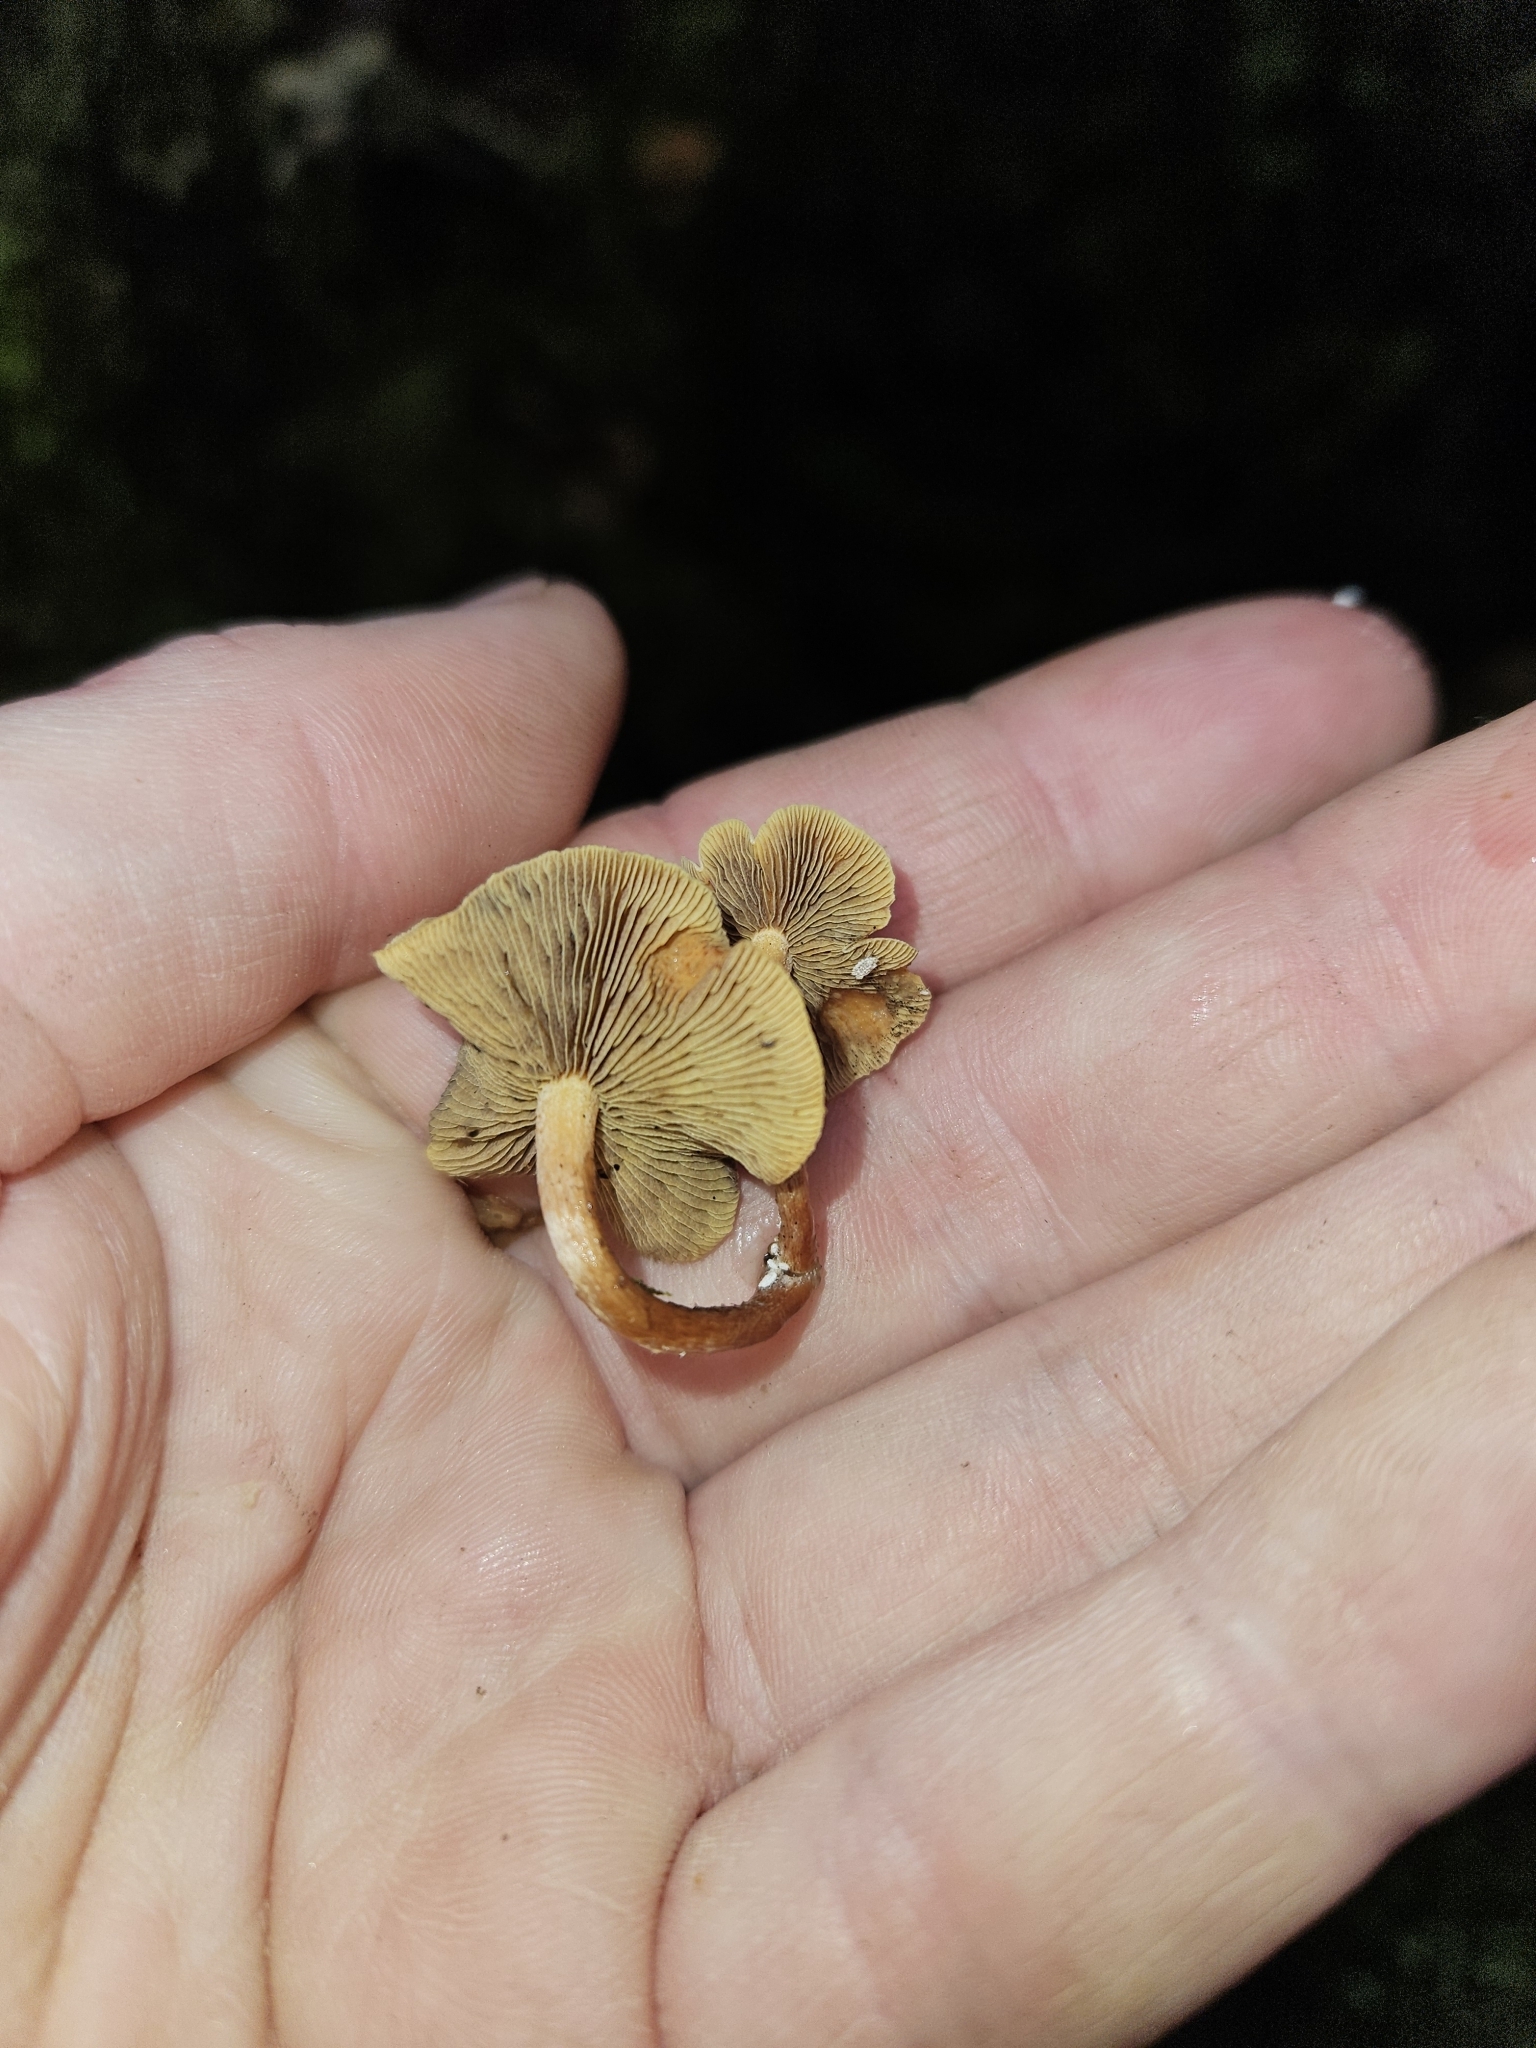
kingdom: Fungi
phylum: Basidiomycota
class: Agaricomycetes
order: Agaricales
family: Strophariaceae
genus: Hypholoma
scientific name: Hypholoma acutum
